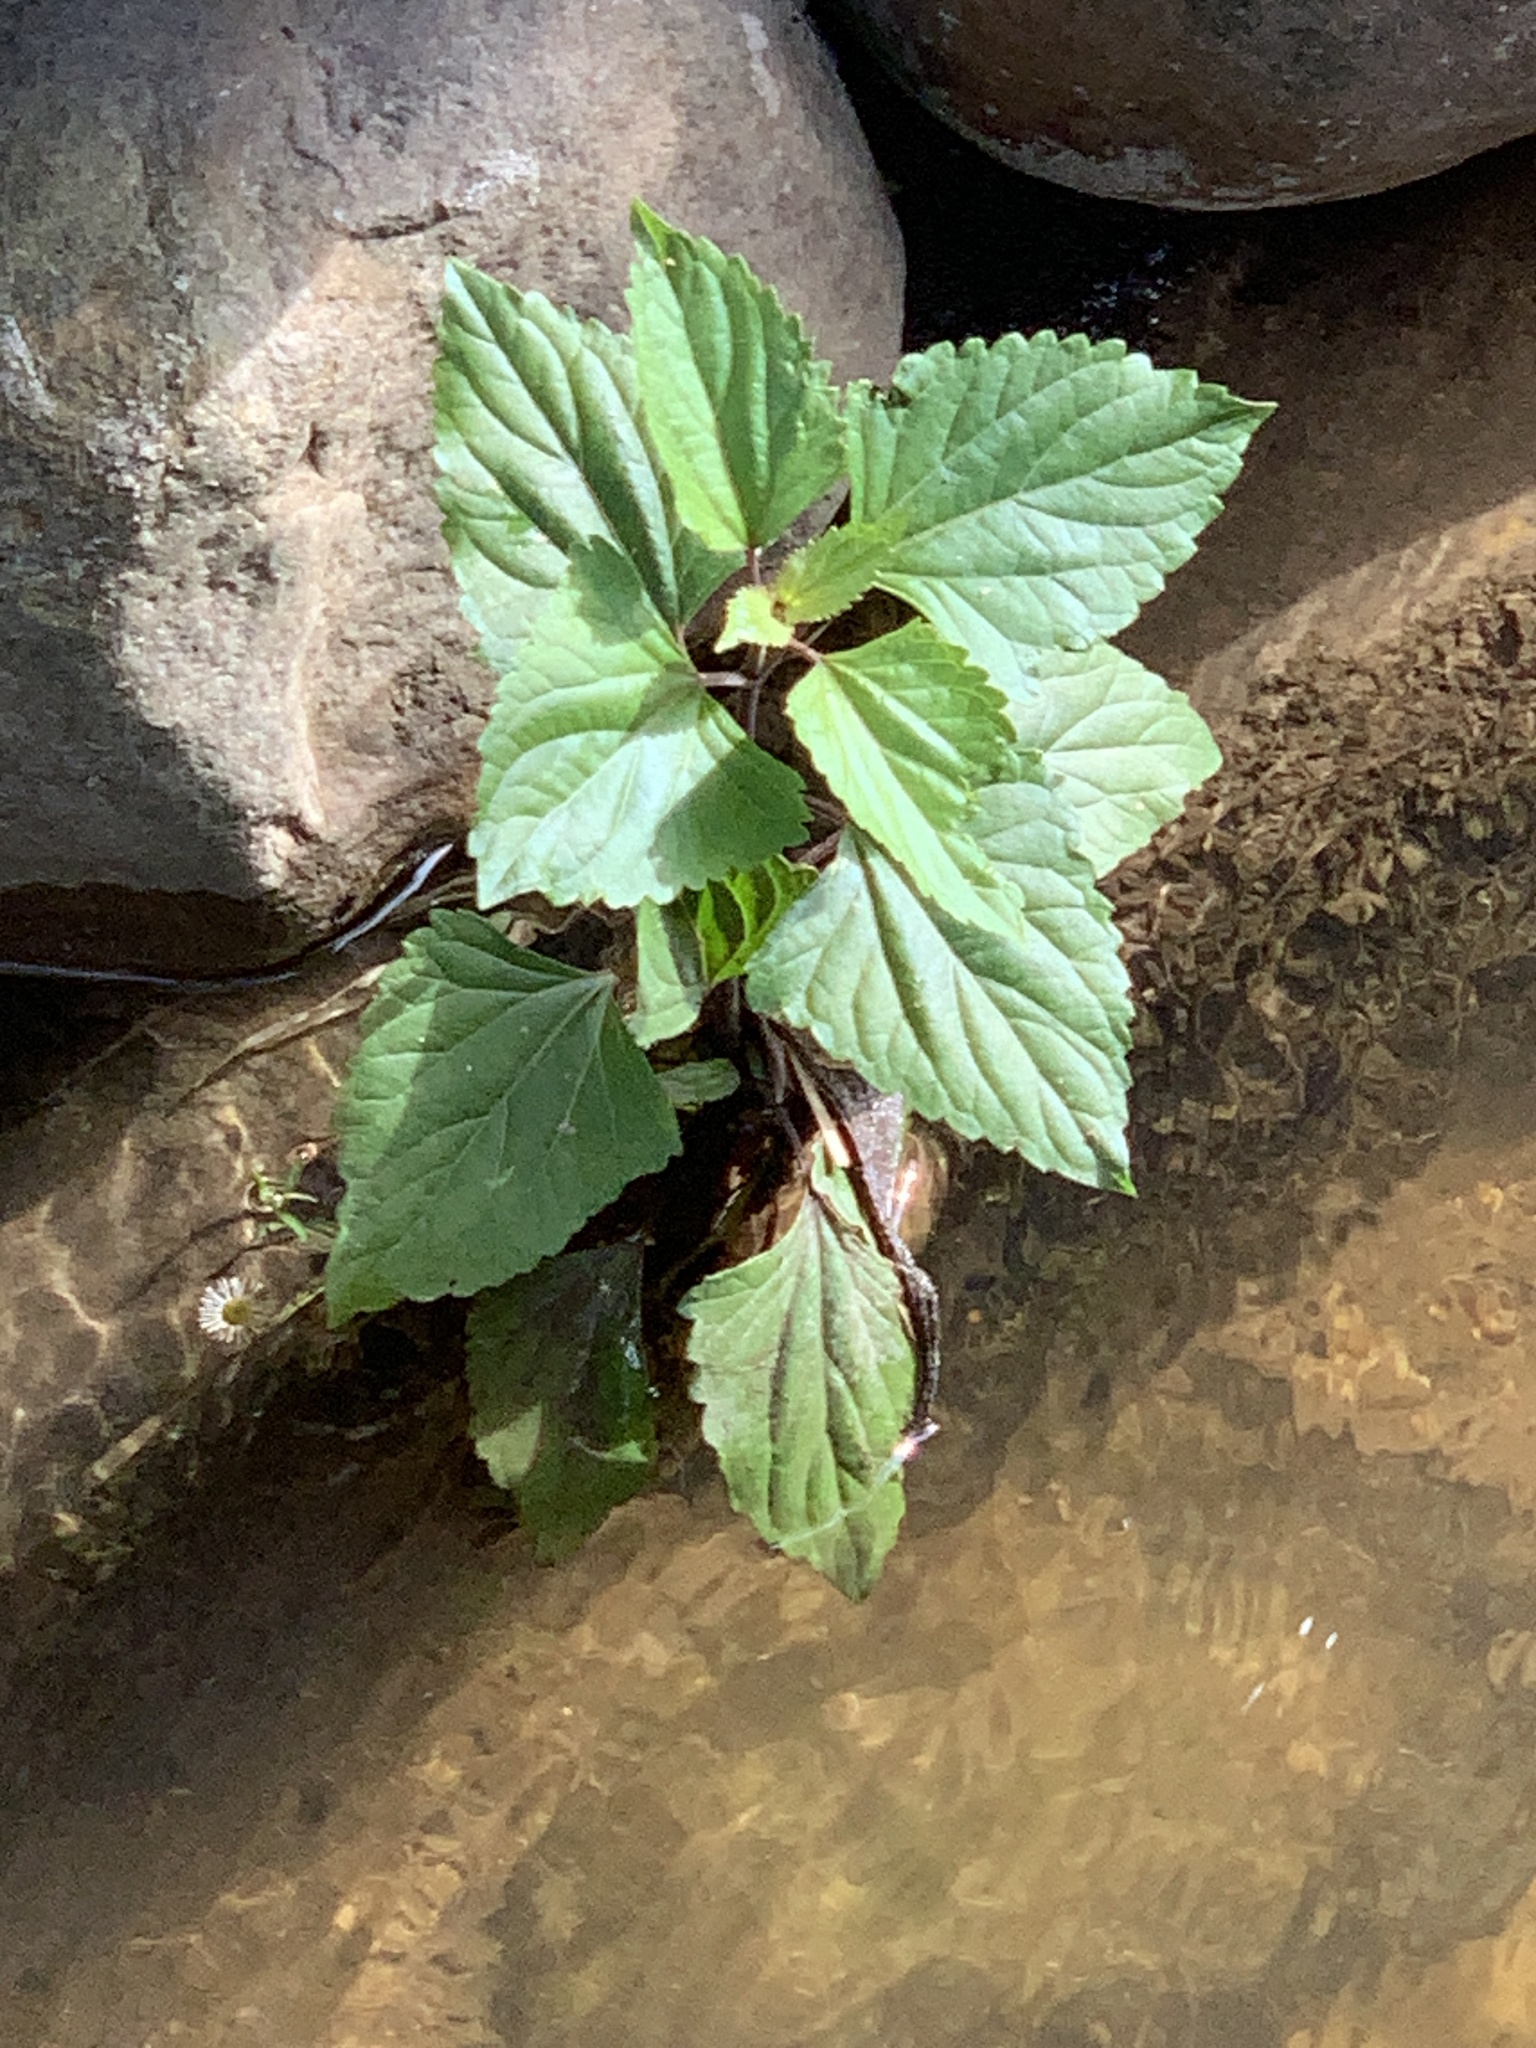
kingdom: Plantae
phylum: Tracheophyta
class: Magnoliopsida
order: Asterales
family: Asteraceae
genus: Ageratina
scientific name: Ageratina adenophora
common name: Sticky snakeroot
